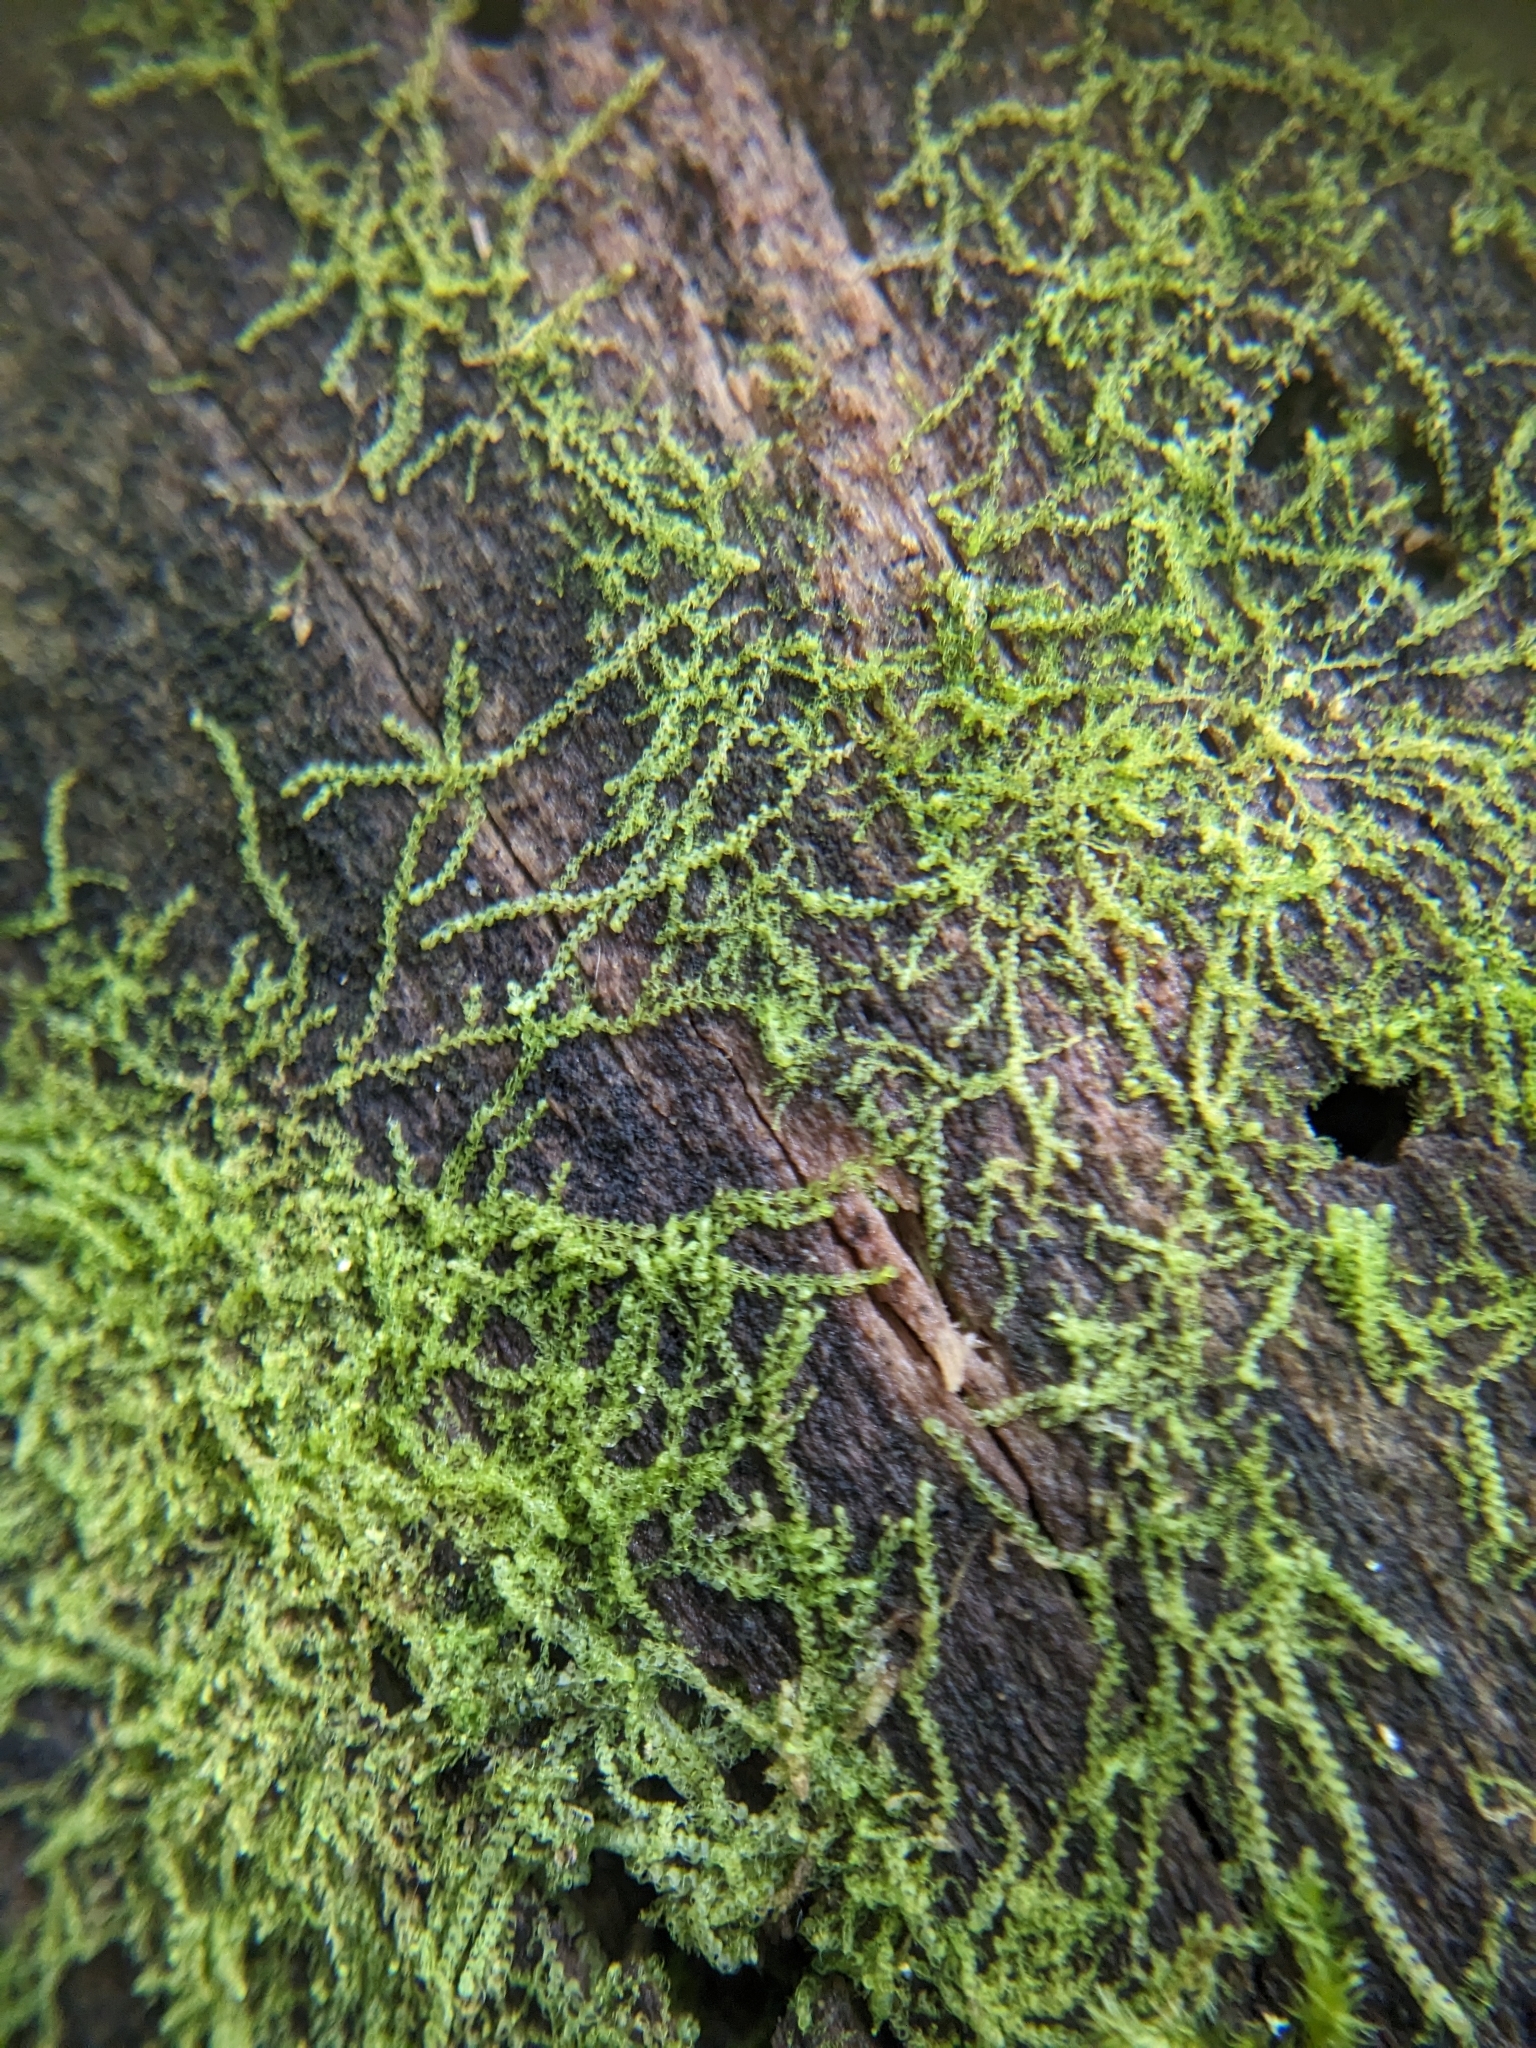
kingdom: Plantae
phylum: Marchantiophyta
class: Jungermanniopsida
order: Jungermanniales
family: Cephaloziaceae
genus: Nowellia
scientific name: Nowellia curvifolia
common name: Wood rustwort
